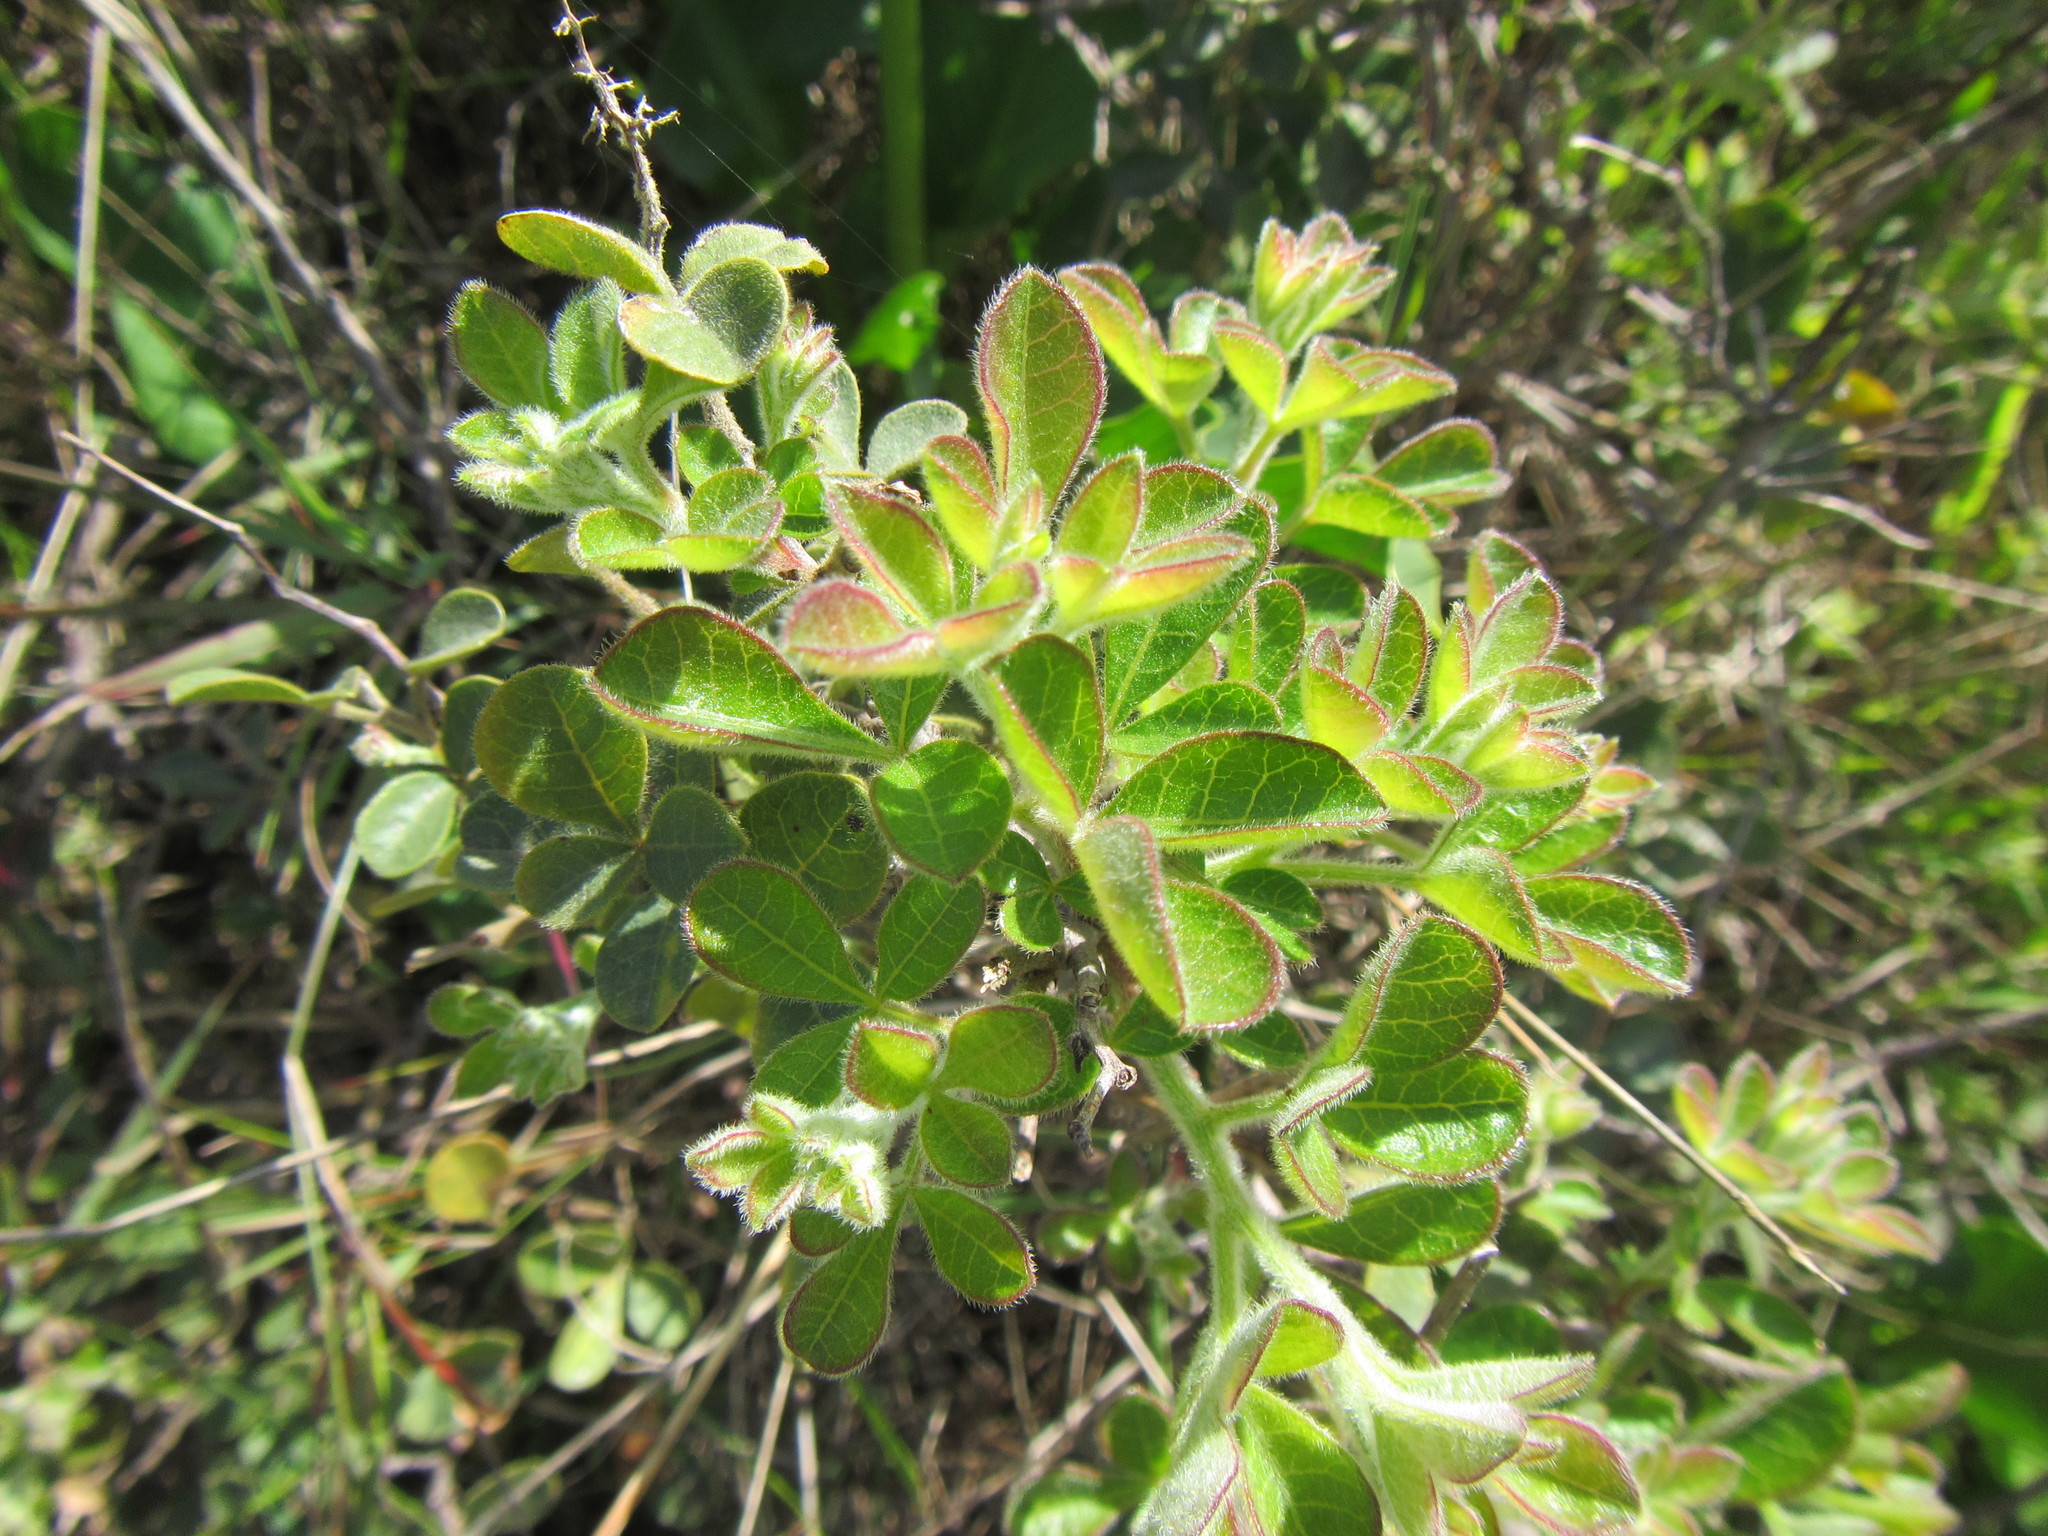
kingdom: Plantae
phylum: Tracheophyta
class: Magnoliopsida
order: Sapindales
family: Anacardiaceae
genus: Searsia
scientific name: Searsia laevigata
